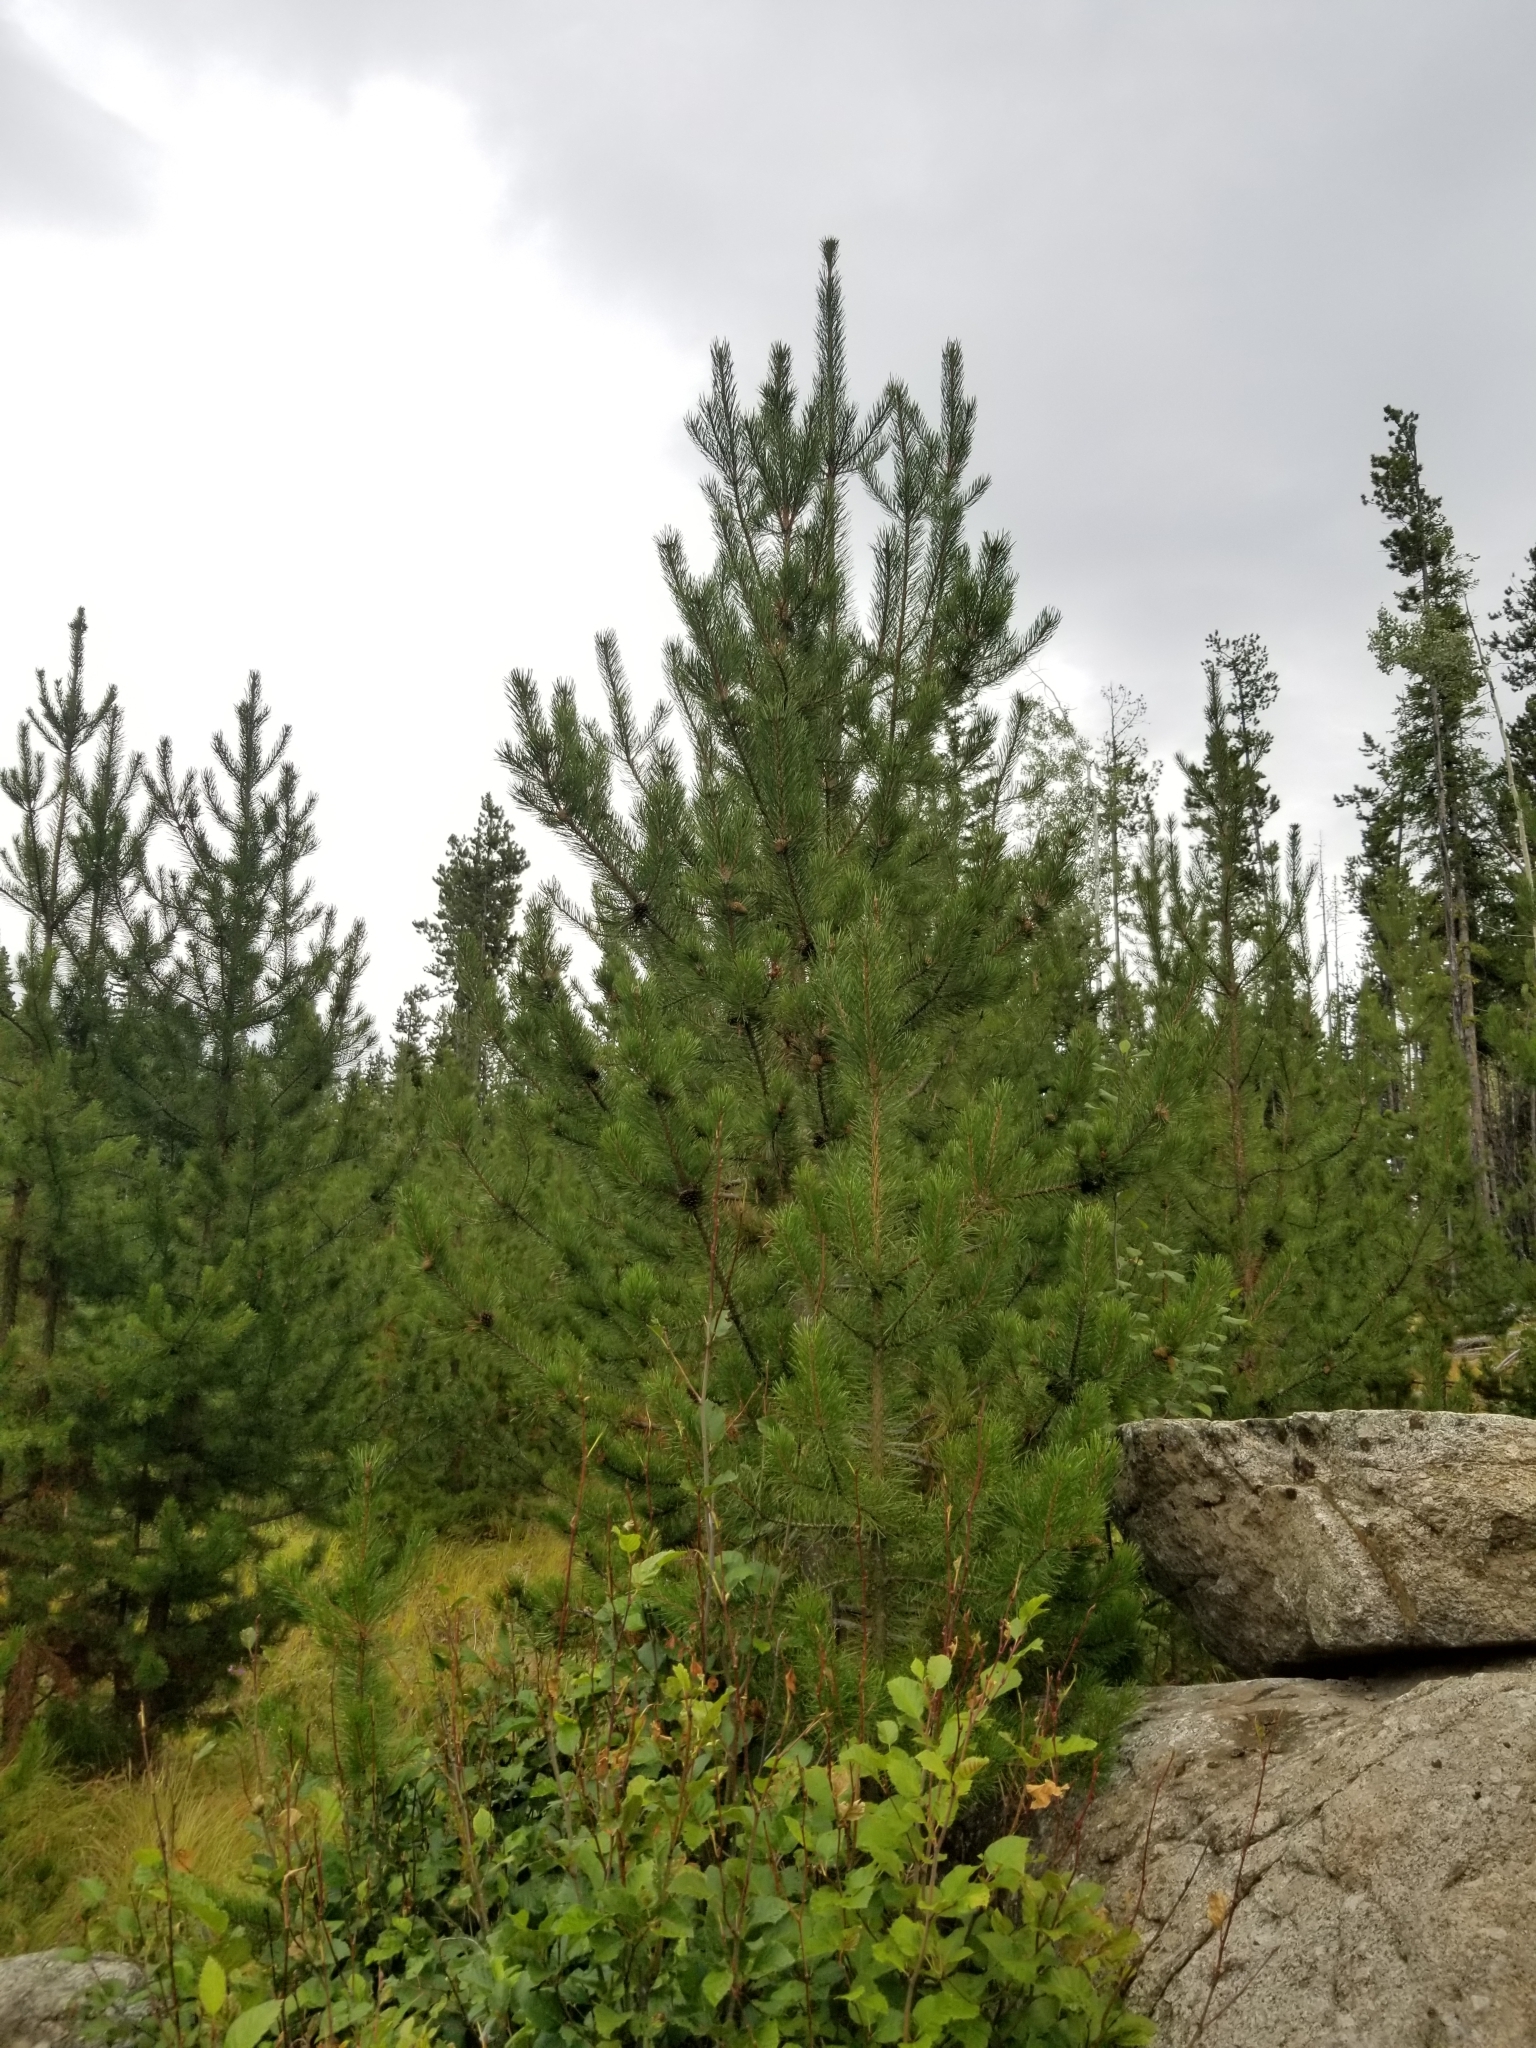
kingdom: Plantae
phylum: Tracheophyta
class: Pinopsida
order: Pinales
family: Pinaceae
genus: Pinus
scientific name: Pinus contorta
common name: Lodgepole pine
